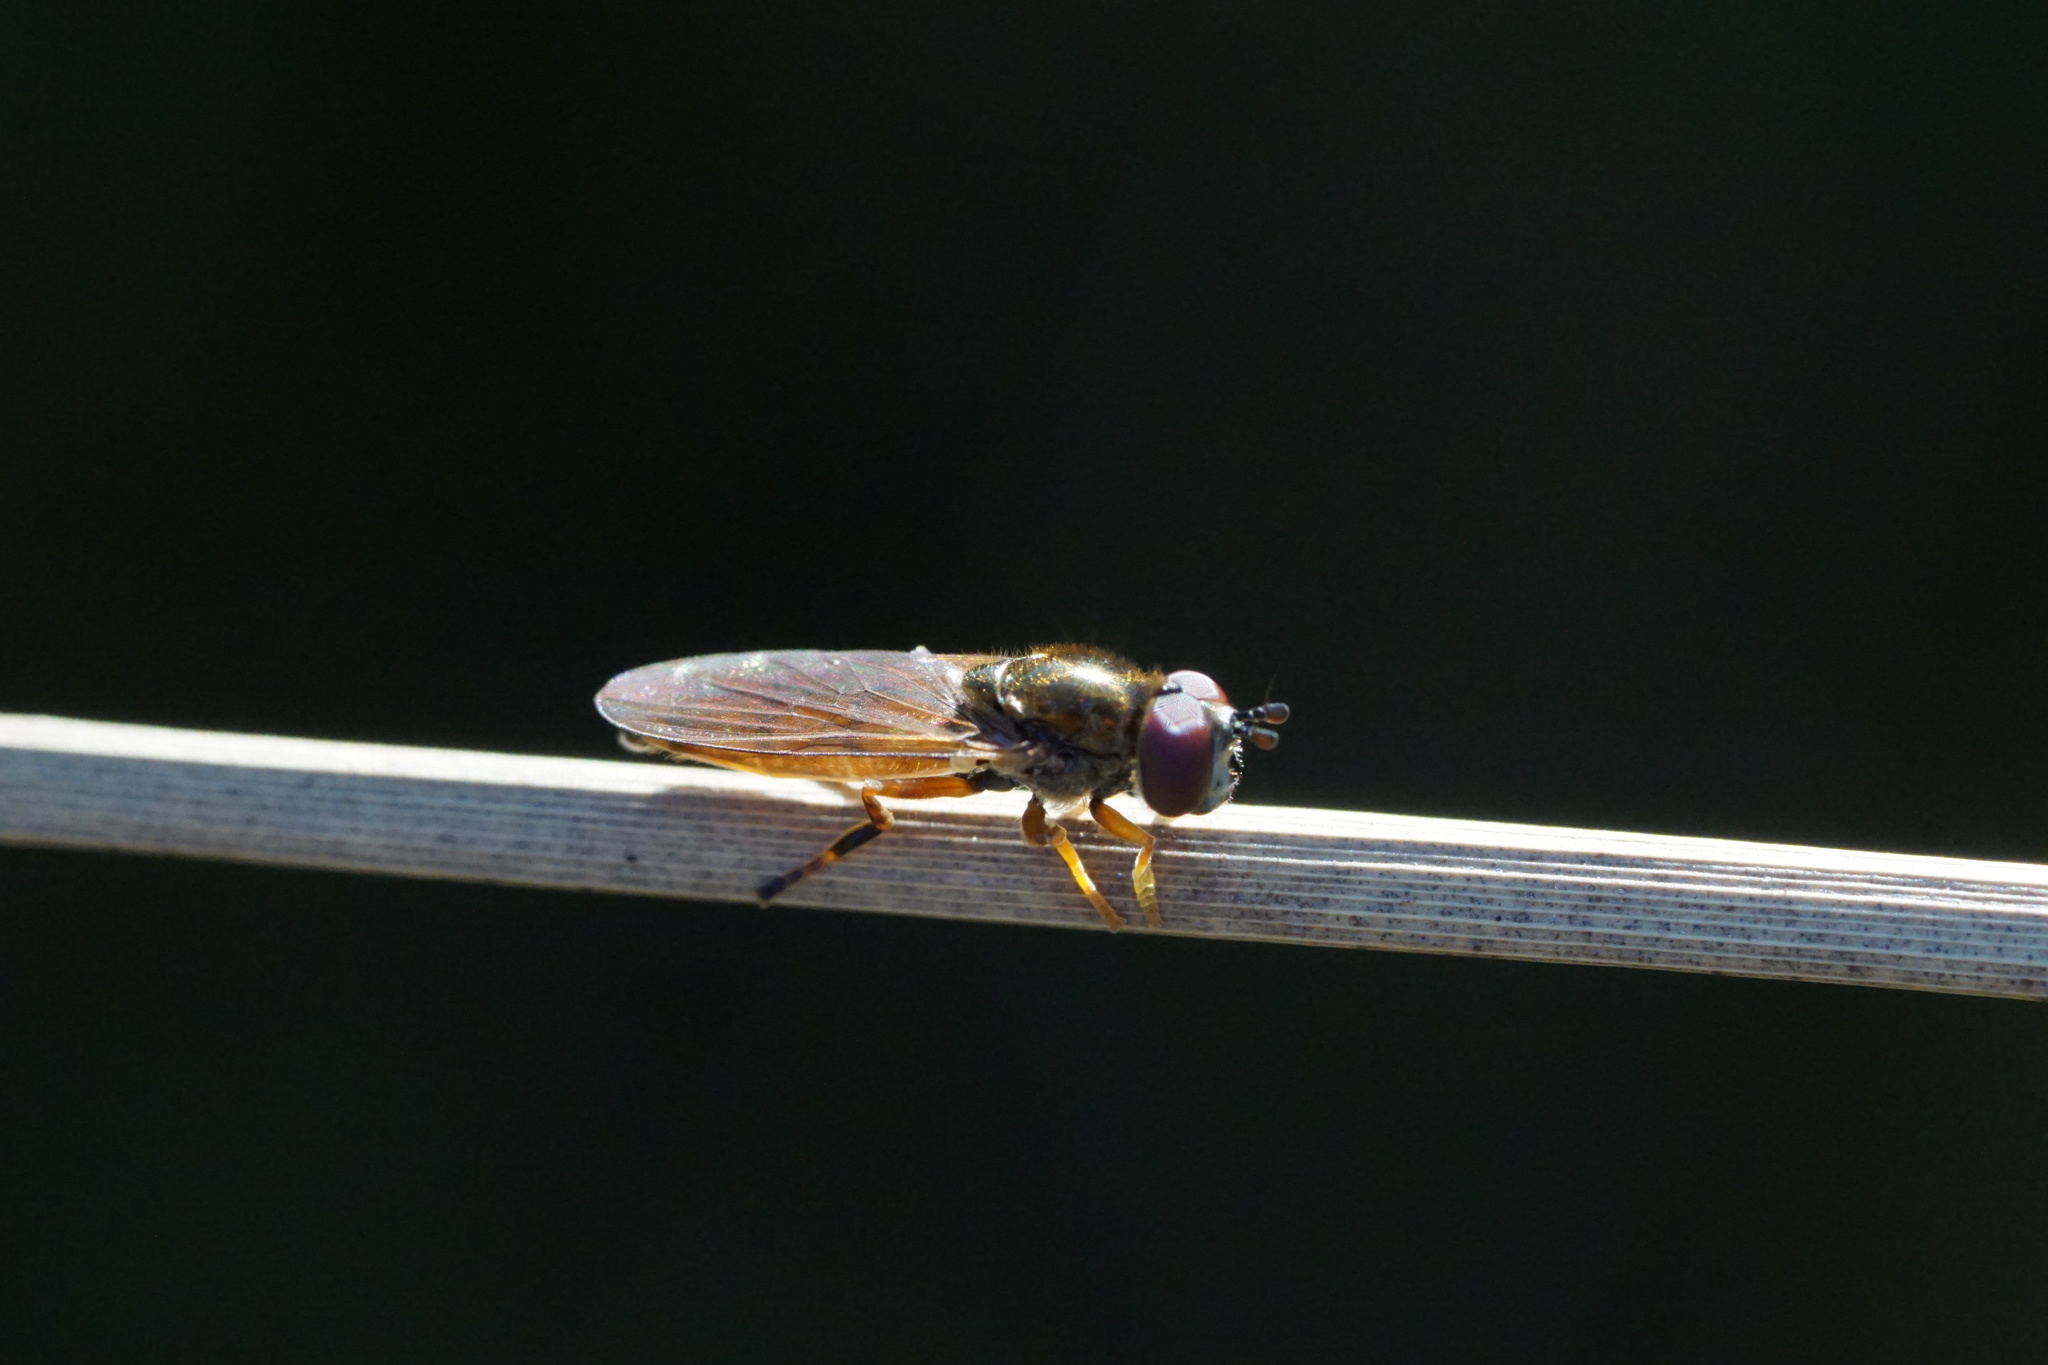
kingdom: Animalia
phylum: Arthropoda
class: Insecta
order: Diptera
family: Syrphidae
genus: Platycheirus
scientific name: Platycheirus quadratus
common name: Meadow sedgesitter
